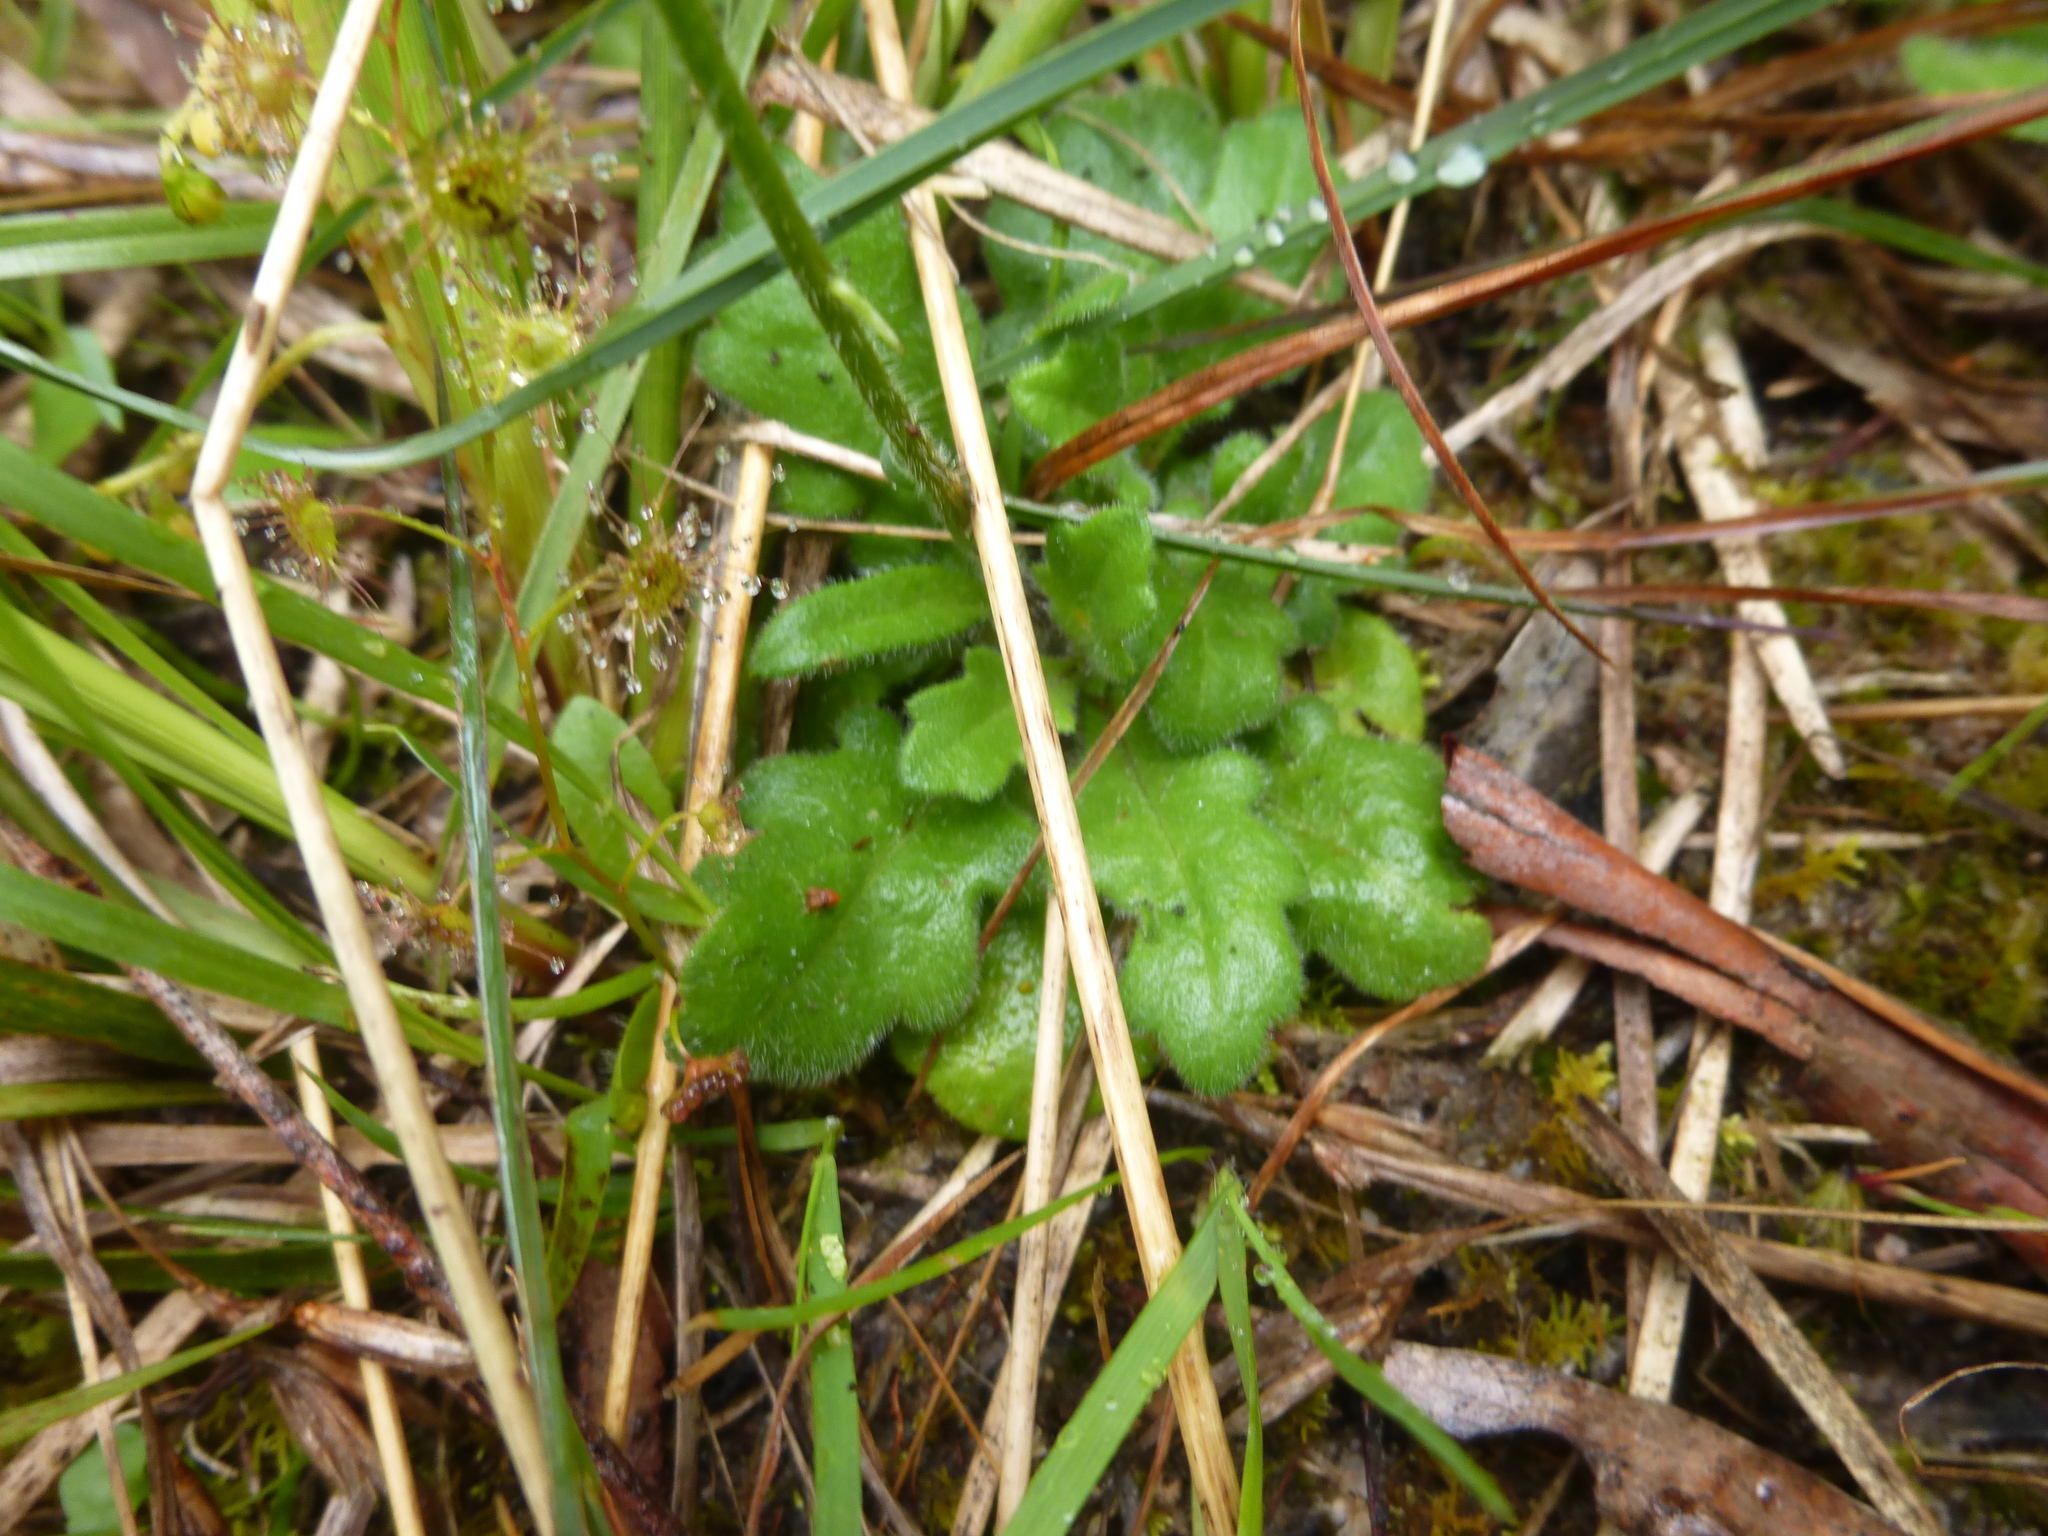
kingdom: Plantae
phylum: Tracheophyta
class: Magnoliopsida
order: Asterales
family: Asteraceae
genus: Lagenophora
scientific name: Lagenophora stipitata
